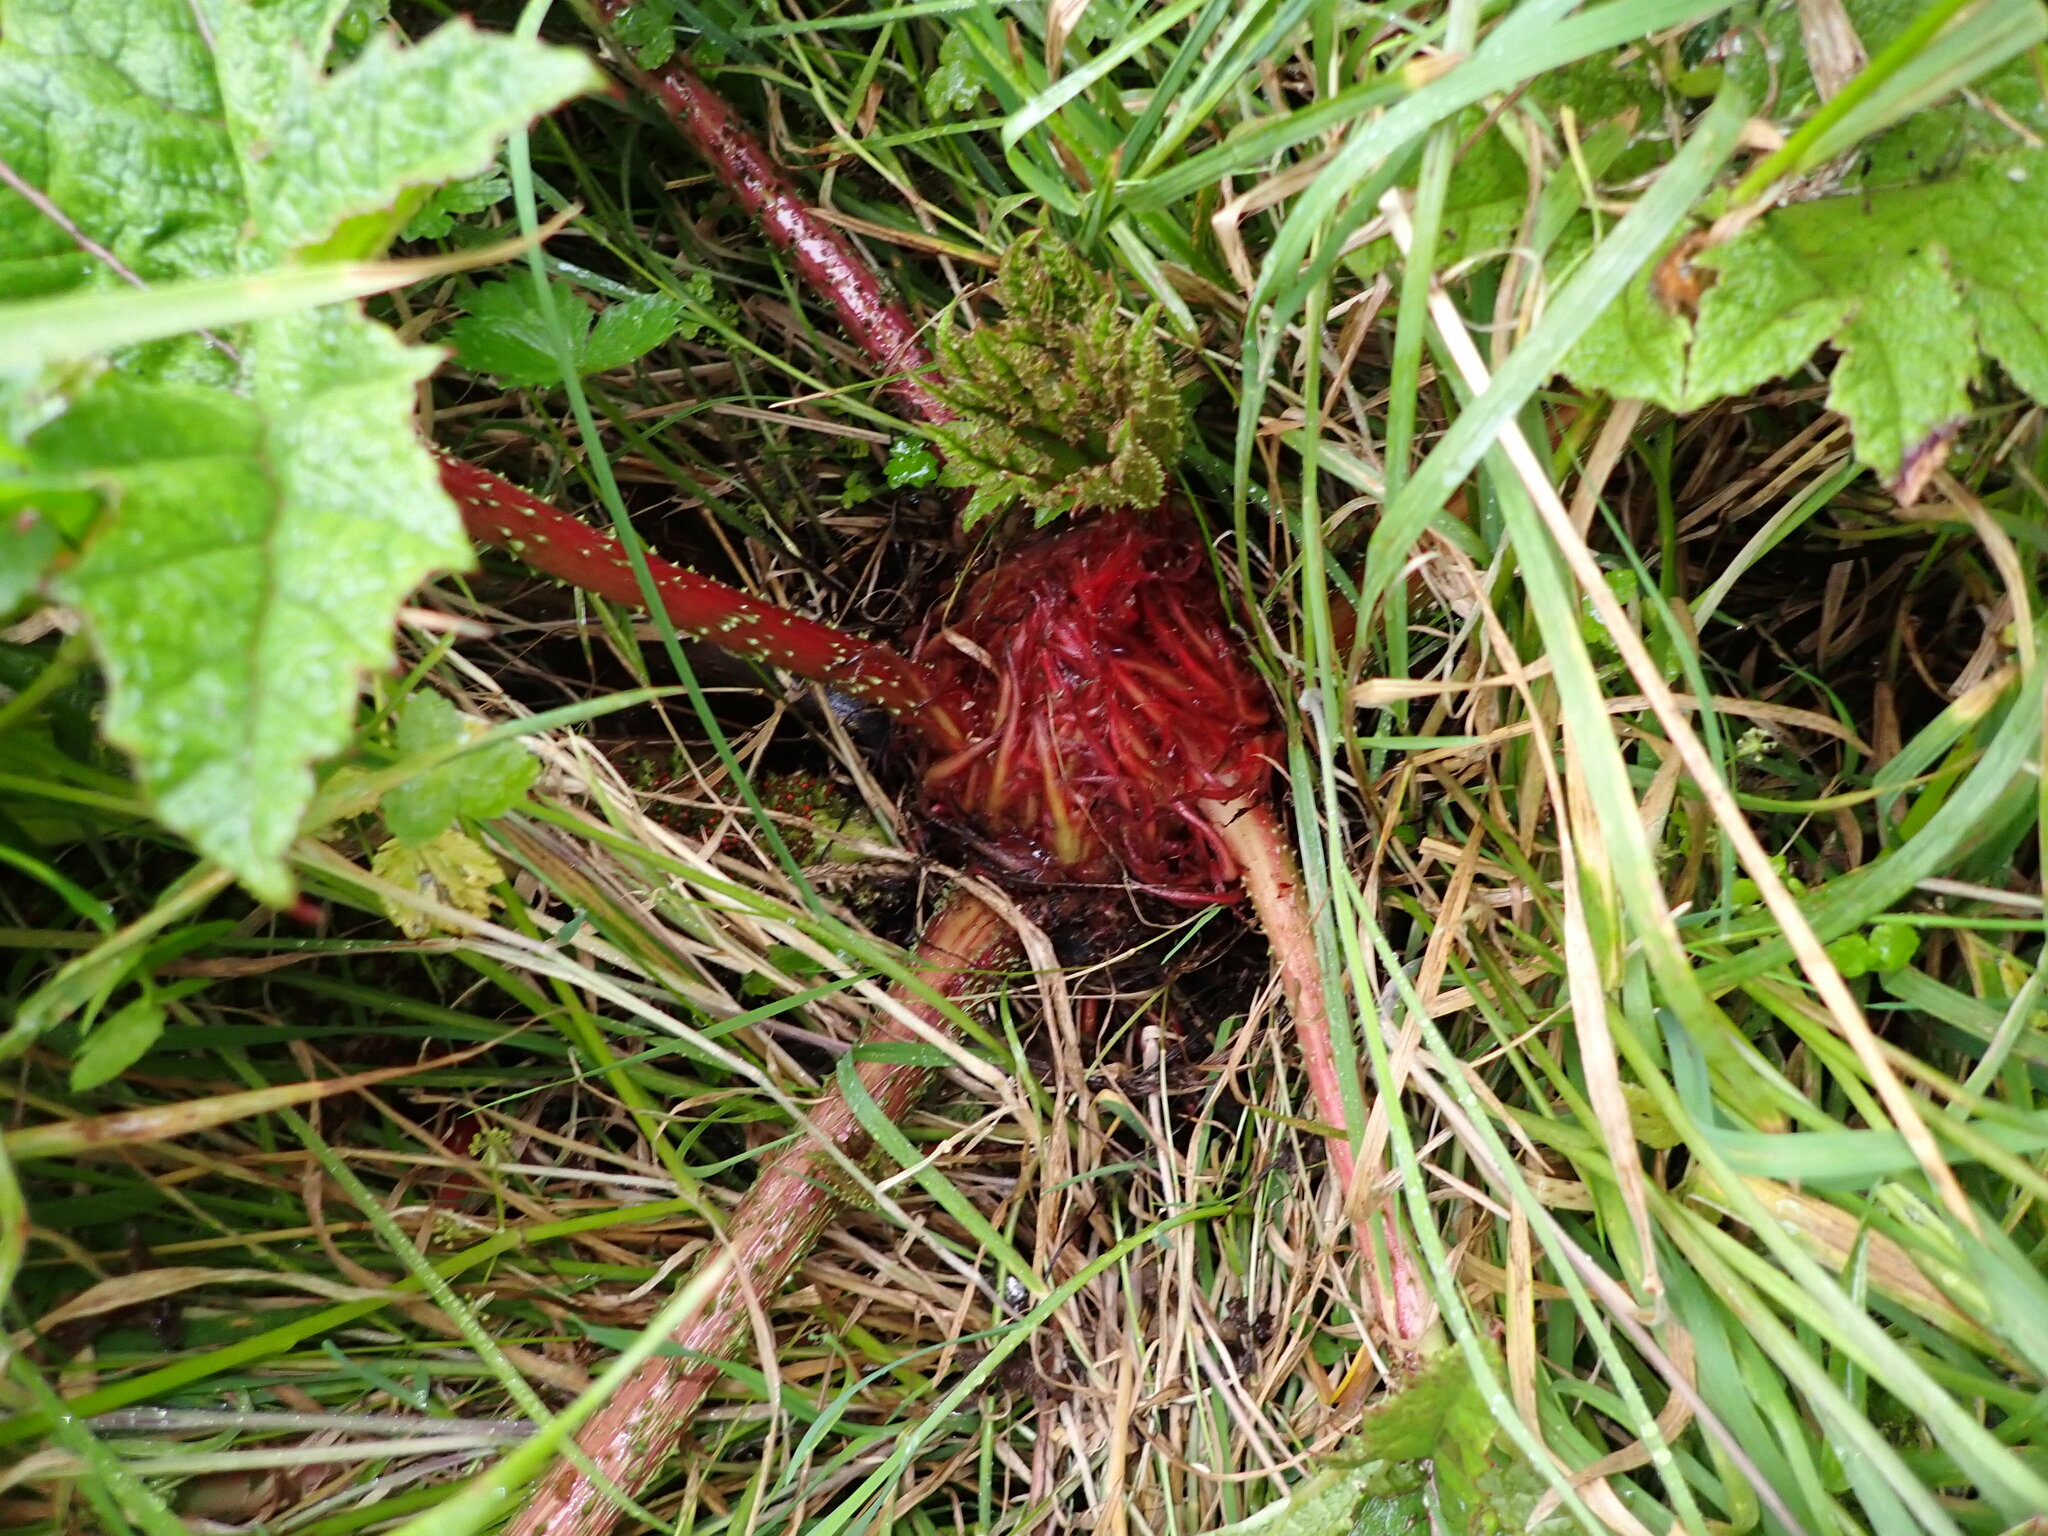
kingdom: Plantae
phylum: Tracheophyta
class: Magnoliopsida
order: Gunnerales
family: Gunneraceae
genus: Gunnera
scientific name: Gunnera tinctoria
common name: Giant-rhubarb
